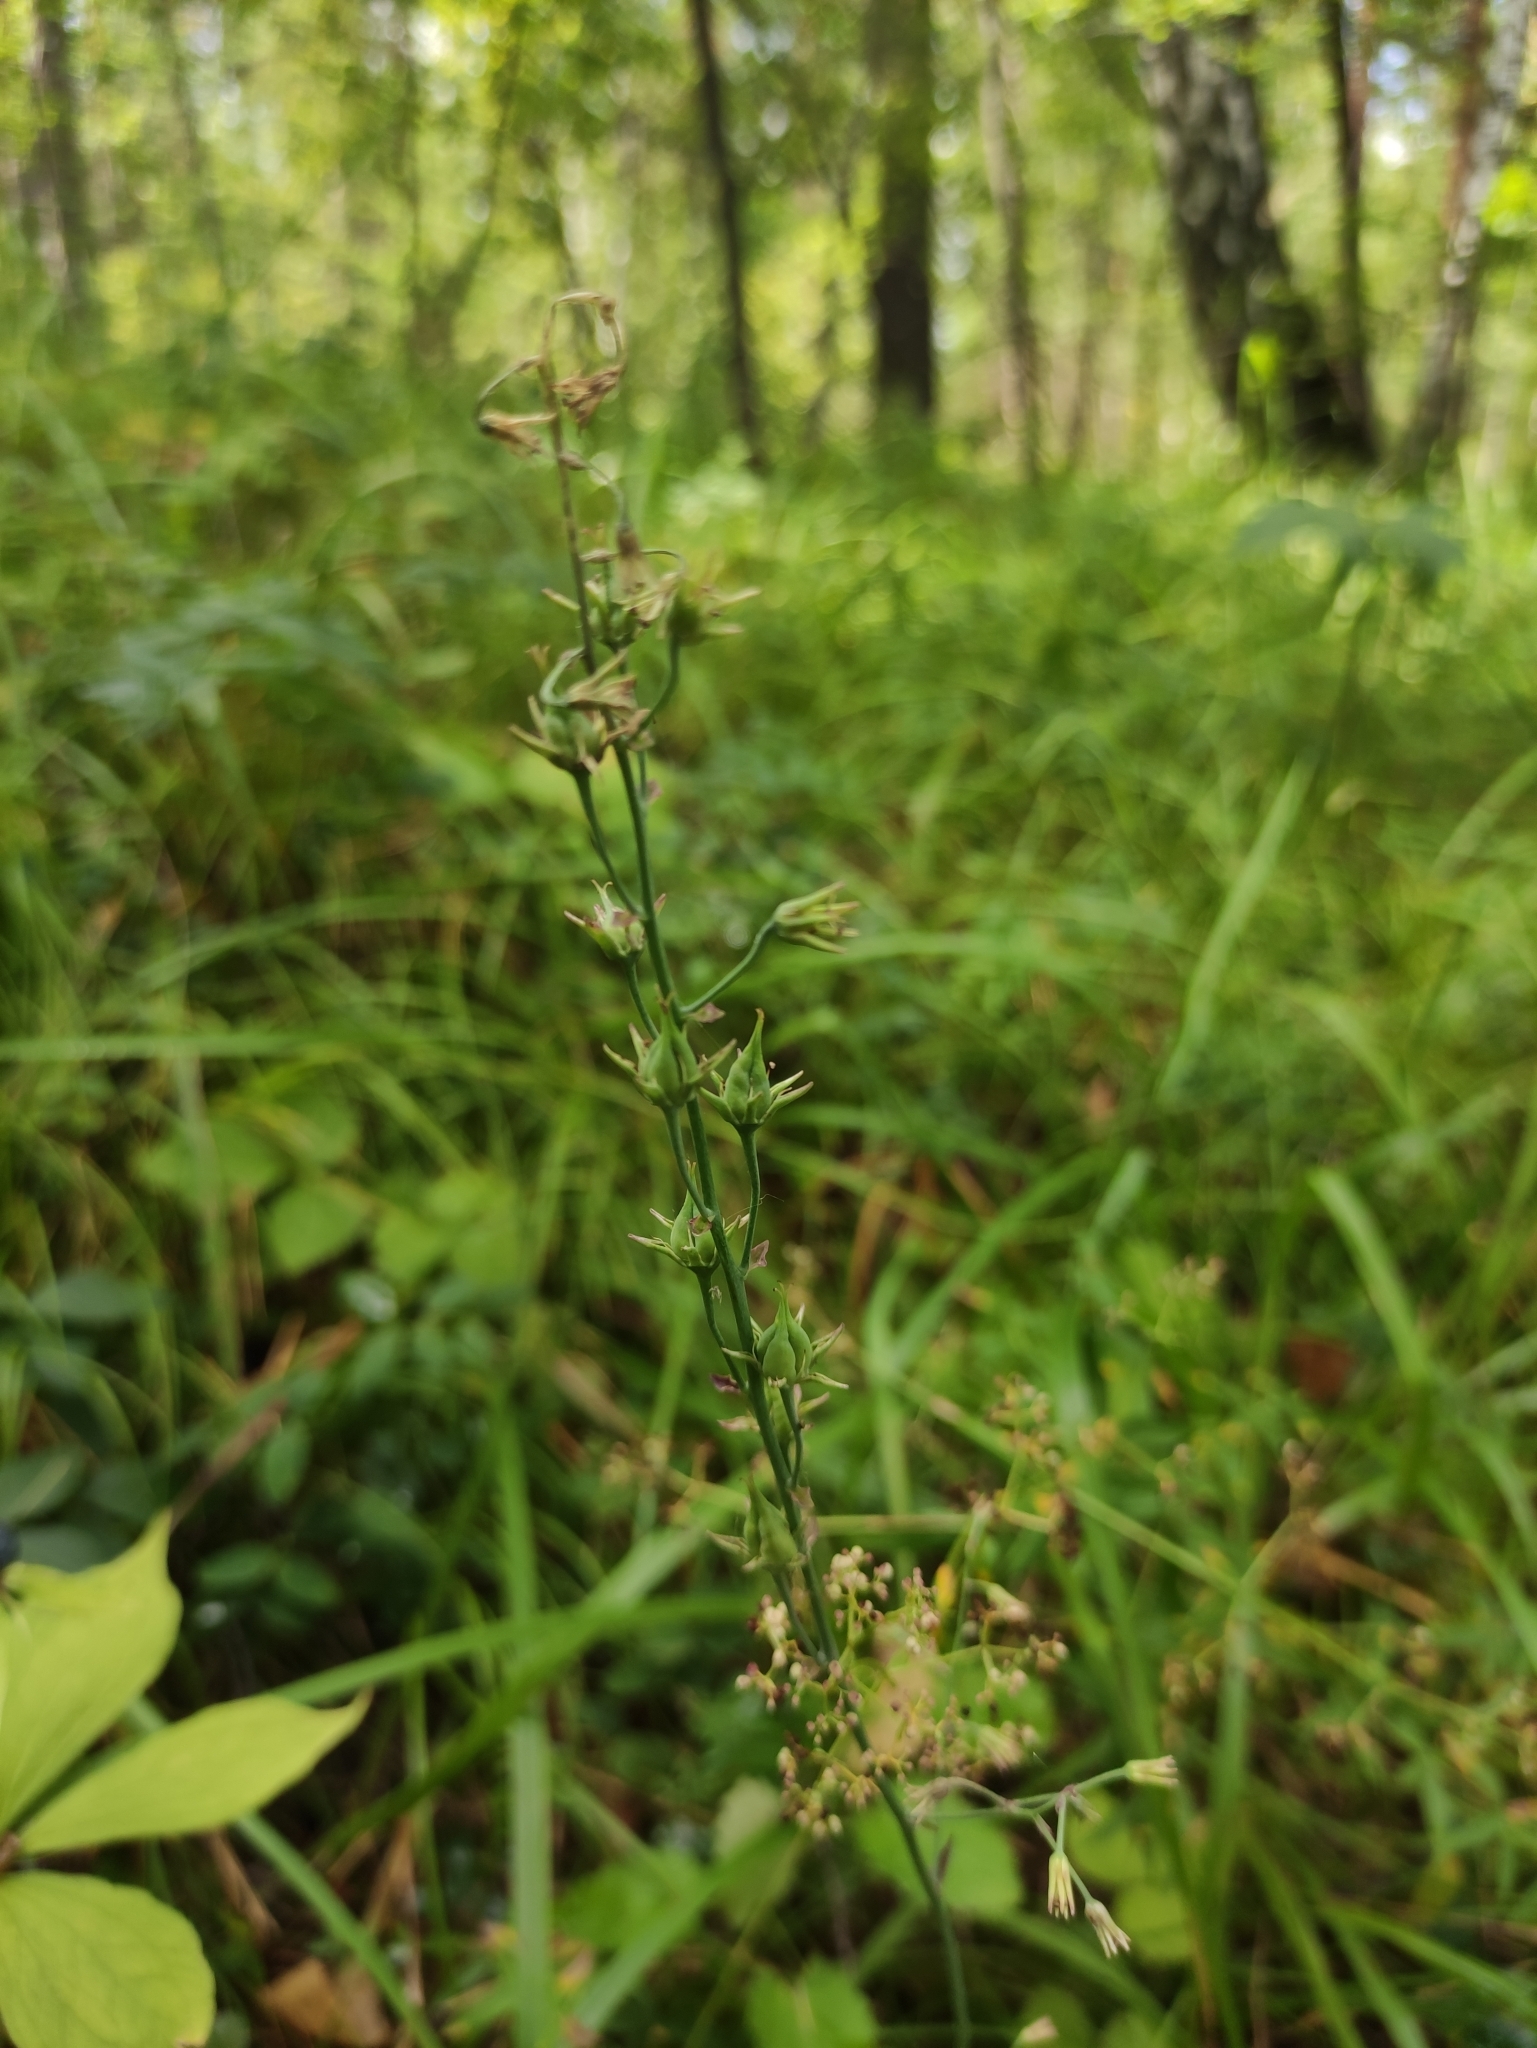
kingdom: Plantae
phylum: Tracheophyta
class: Liliopsida
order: Liliales
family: Melanthiaceae
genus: Anticlea
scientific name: Anticlea sibirica
